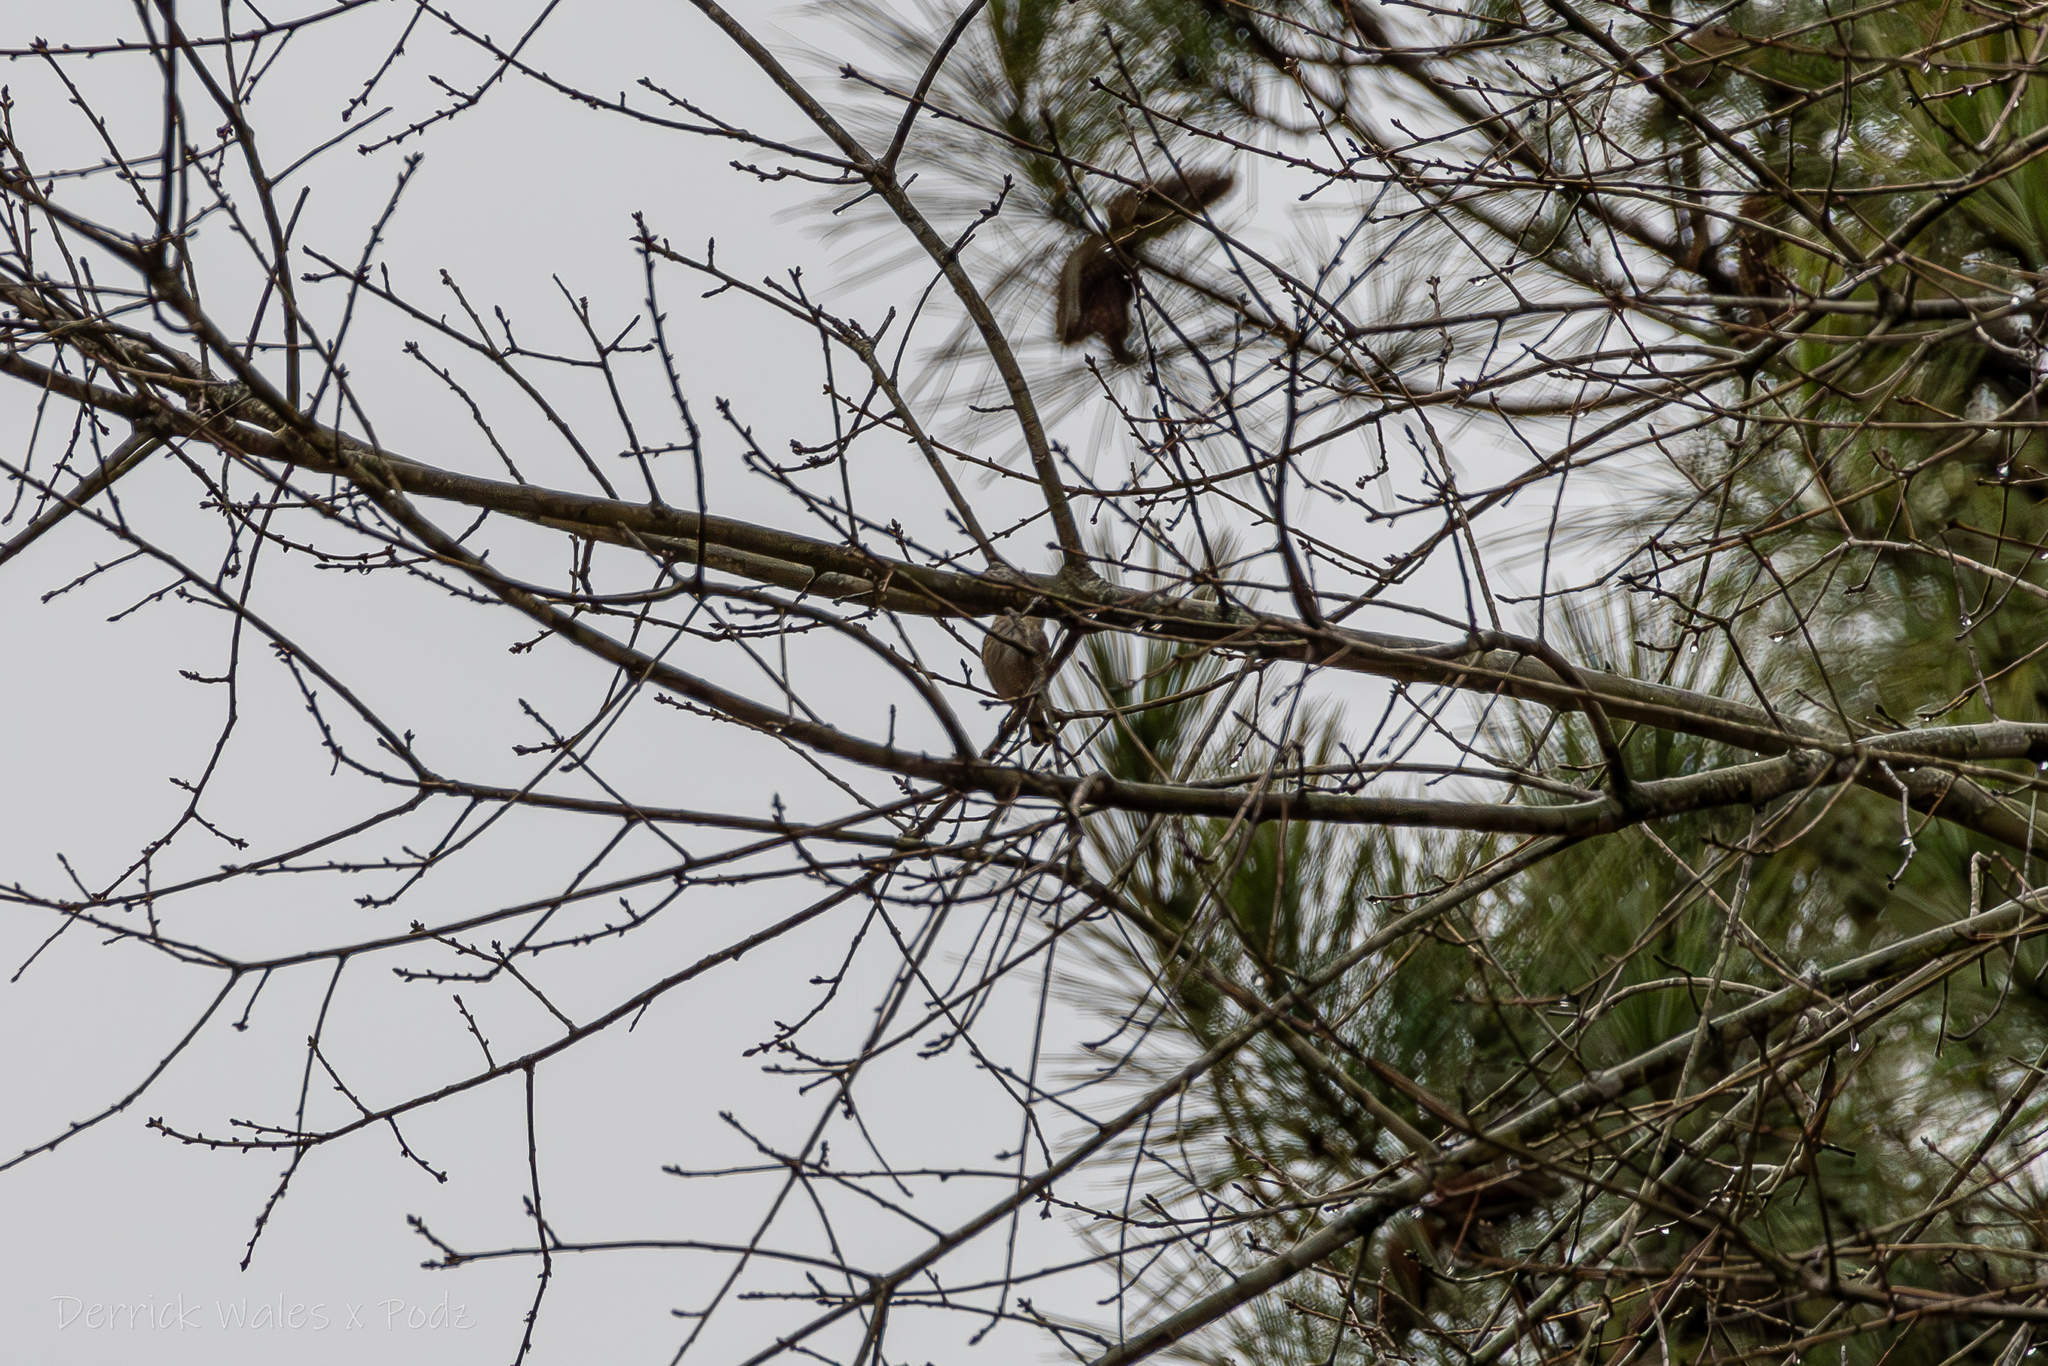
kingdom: Animalia
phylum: Chordata
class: Aves
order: Passeriformes
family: Parulidae
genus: Setophaga
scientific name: Setophaga coronata
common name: Myrtle warbler
